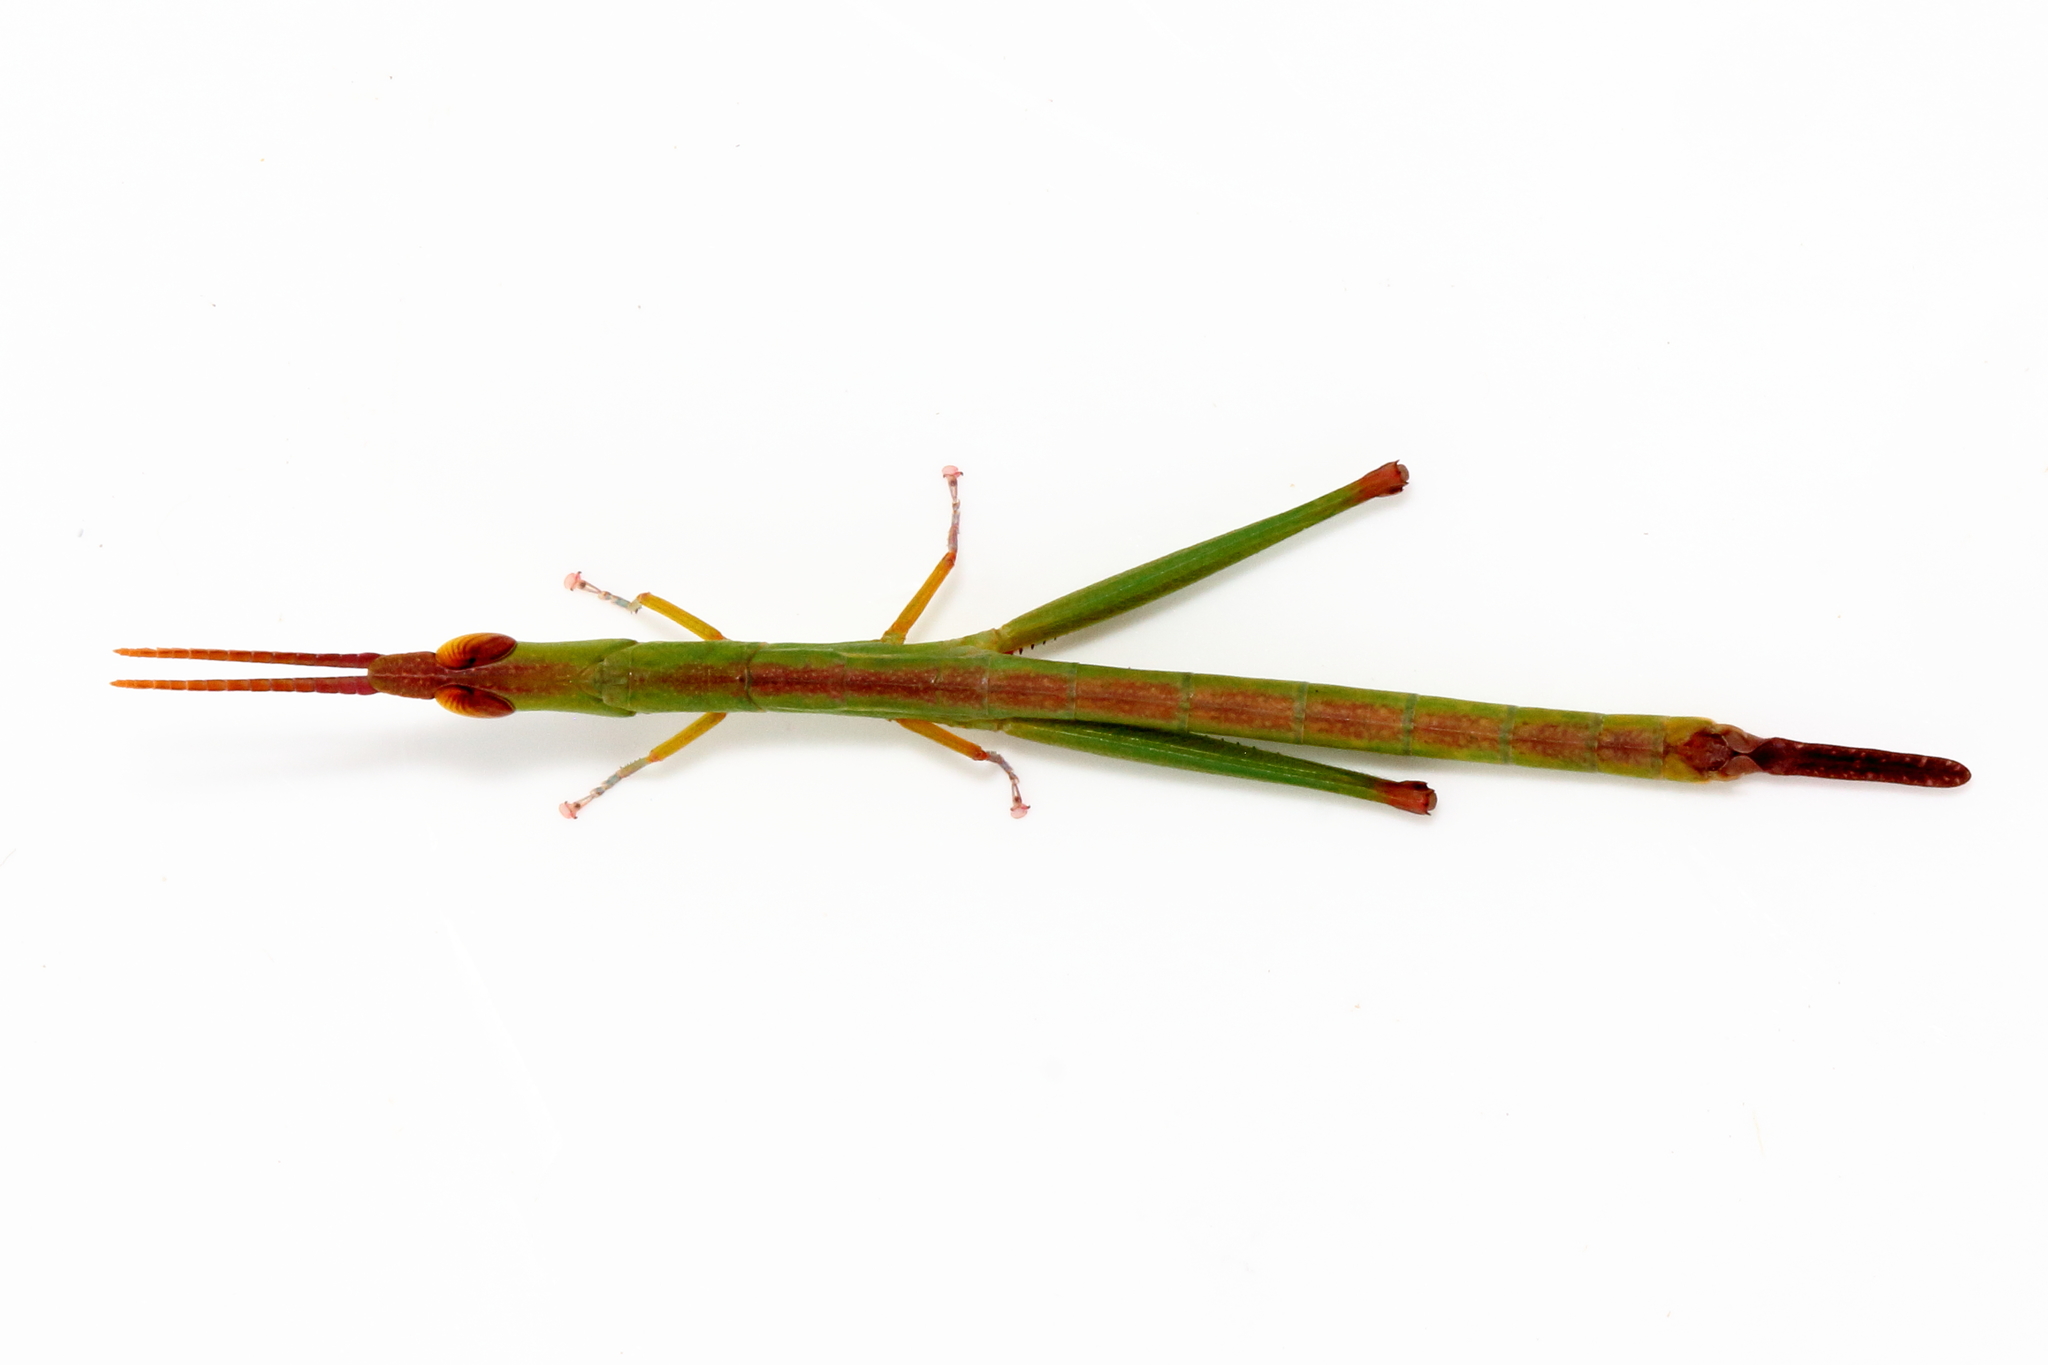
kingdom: Animalia
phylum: Arthropoda
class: Insecta
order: Orthoptera
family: Morabidae
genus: Warramaba
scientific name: Warramaba grandis
